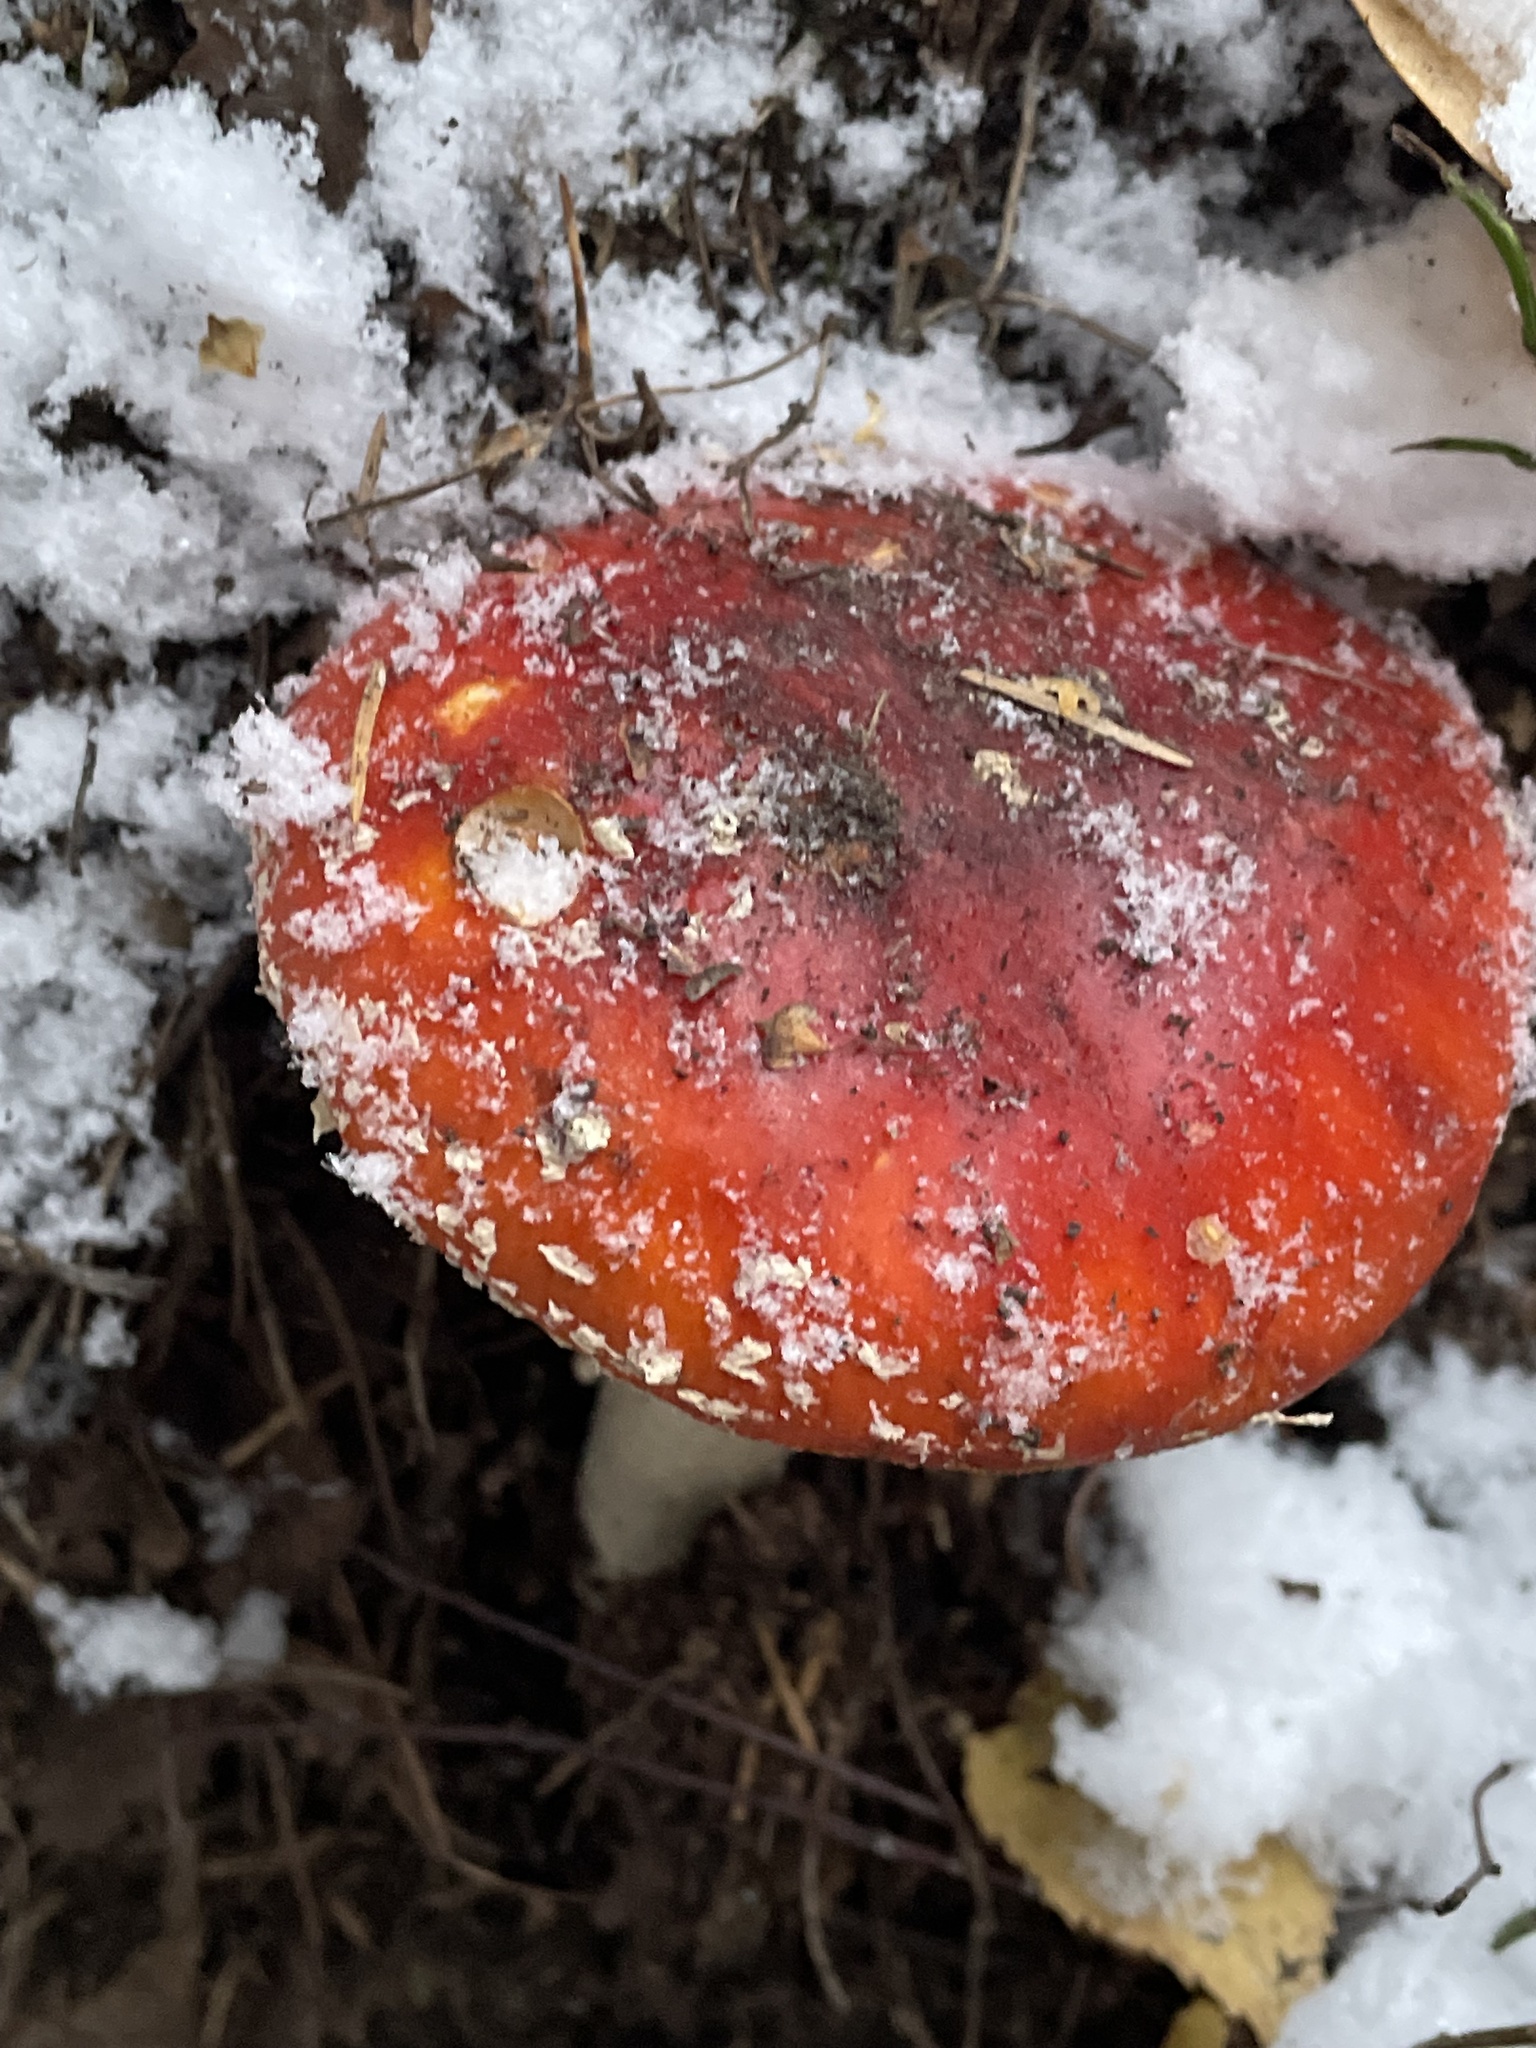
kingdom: Fungi
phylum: Basidiomycota
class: Agaricomycetes
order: Agaricales
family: Amanitaceae
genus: Amanita
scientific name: Amanita muscaria
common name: Fly agaric
